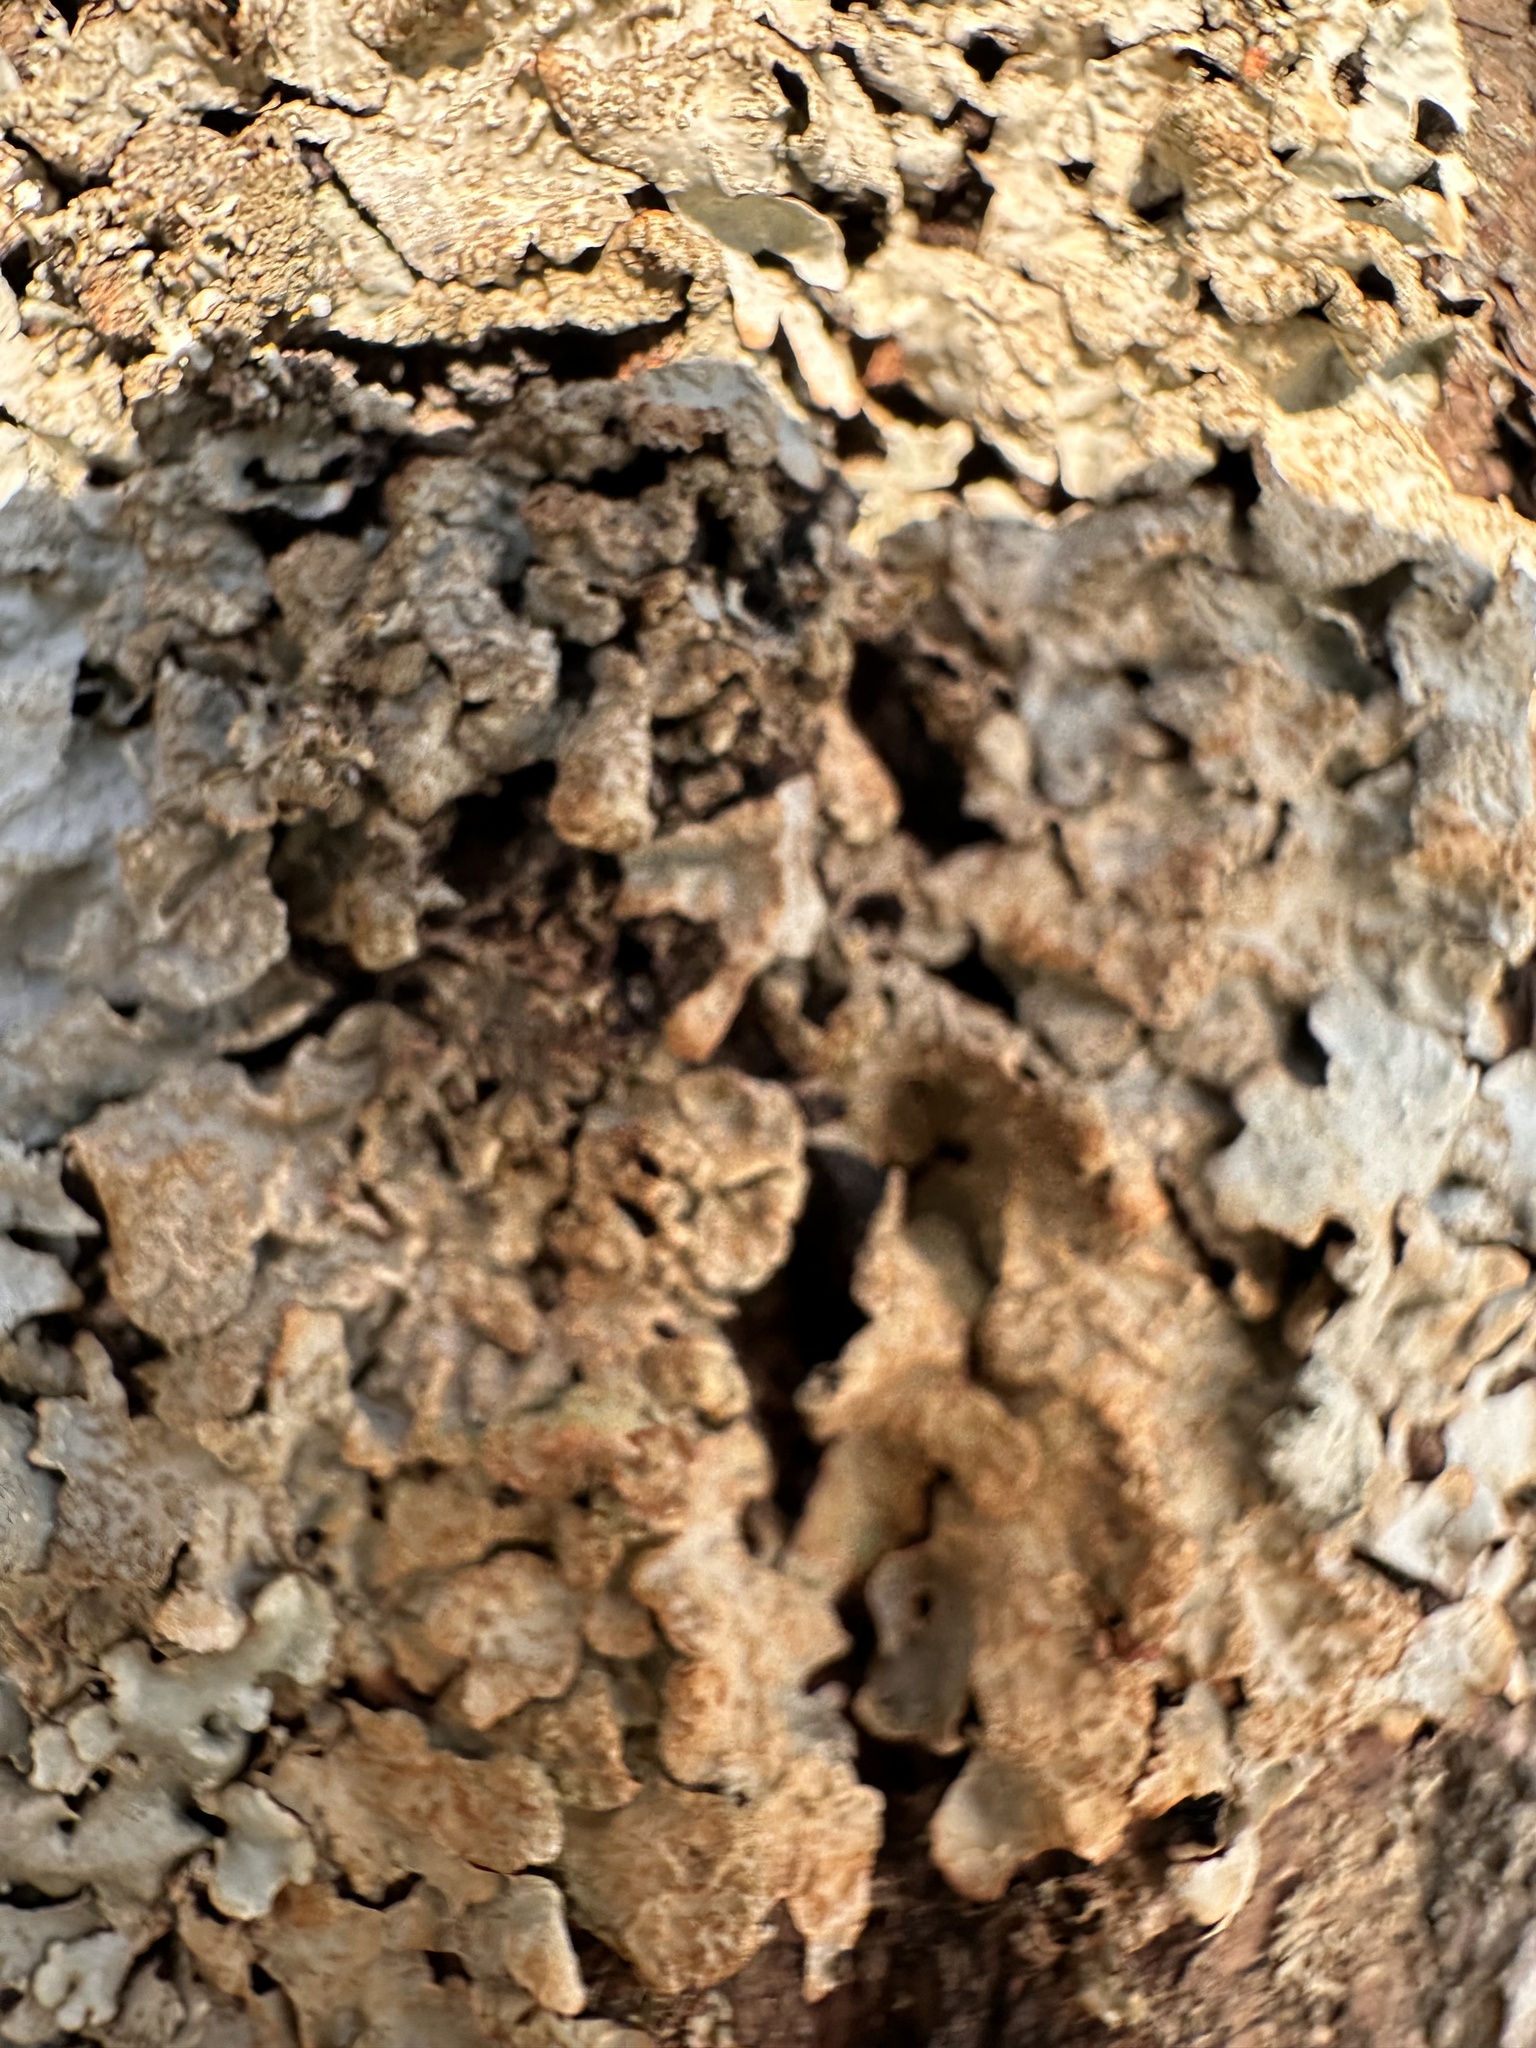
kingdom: Fungi
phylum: Ascomycota
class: Lecanoromycetes
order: Lecanorales
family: Parmeliaceae
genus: Parmelia
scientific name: Parmelia sulcata
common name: Netted shield lichen
